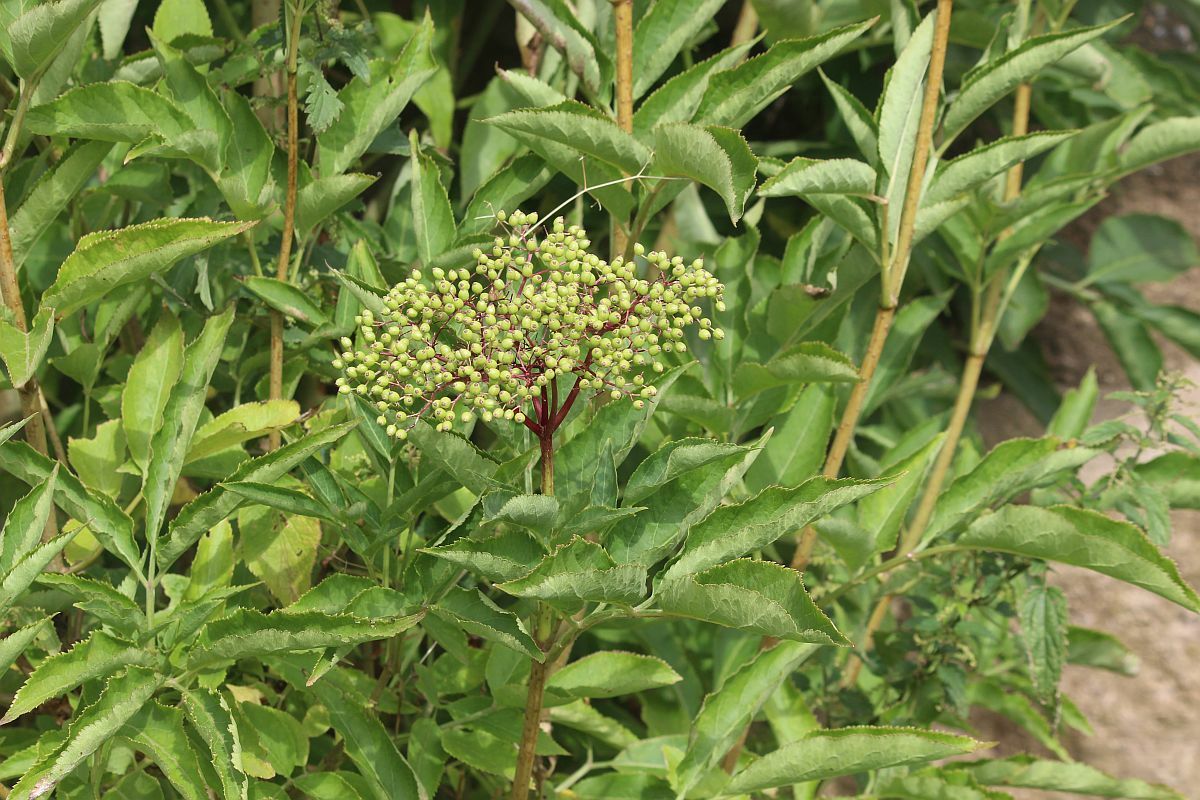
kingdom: Plantae
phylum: Tracheophyta
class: Magnoliopsida
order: Dipsacales
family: Viburnaceae
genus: Sambucus
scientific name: Sambucus nigra
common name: Elder
